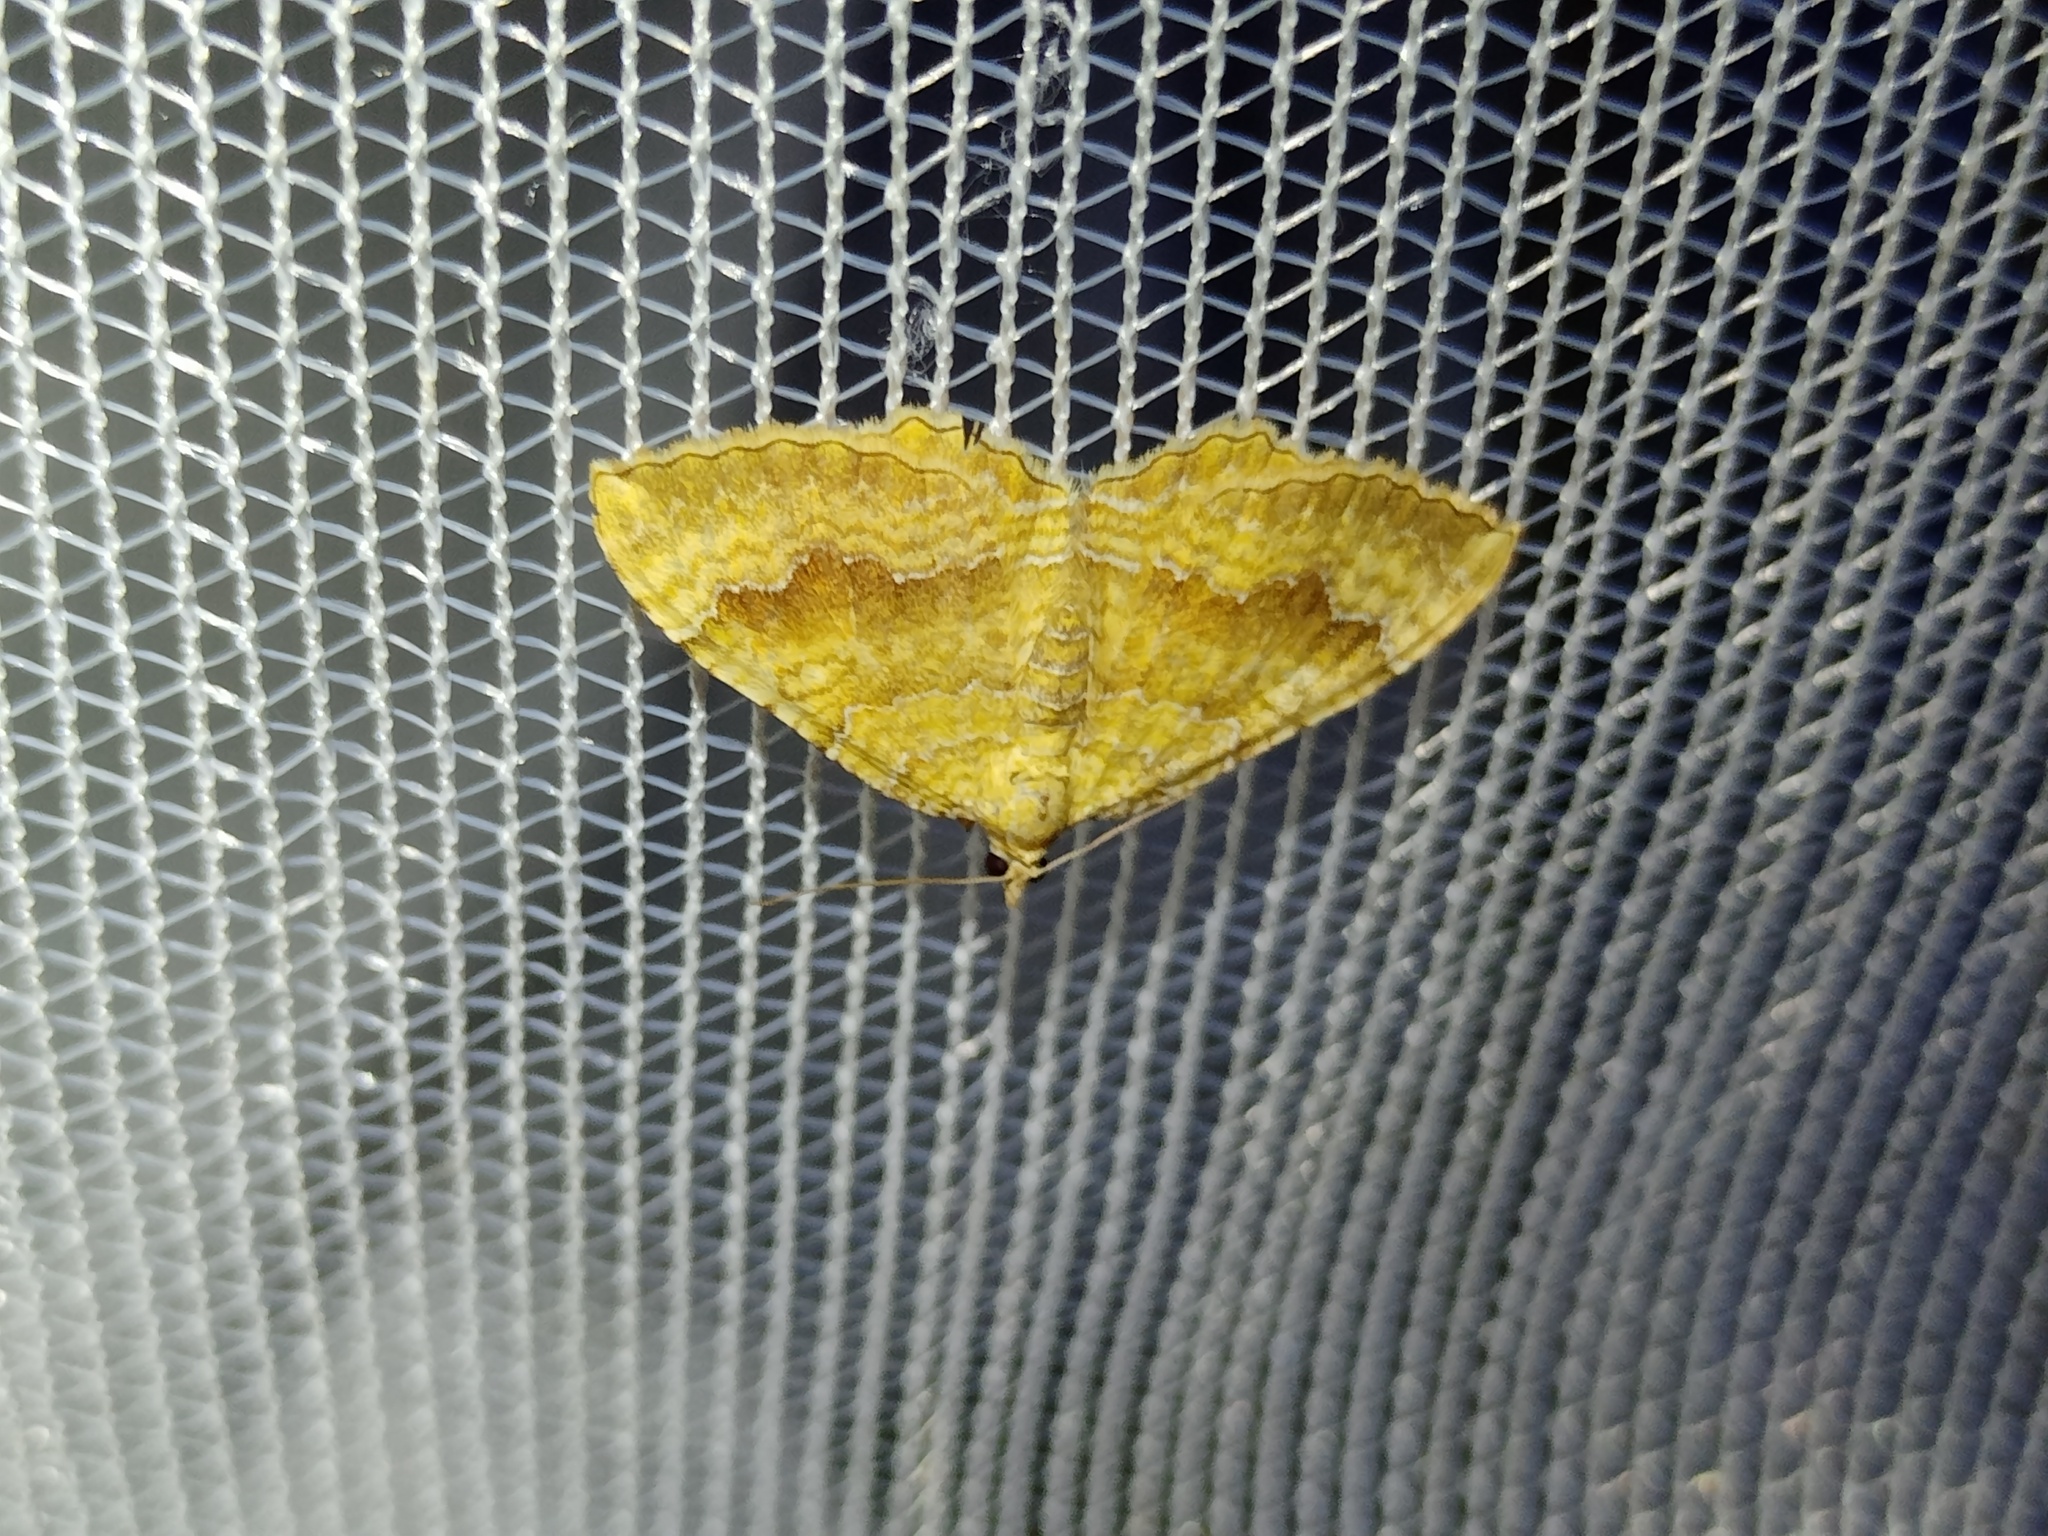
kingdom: Animalia
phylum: Arthropoda
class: Insecta
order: Lepidoptera
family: Geometridae
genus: Camptogramma
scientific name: Camptogramma bilineata
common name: Yellow shell
